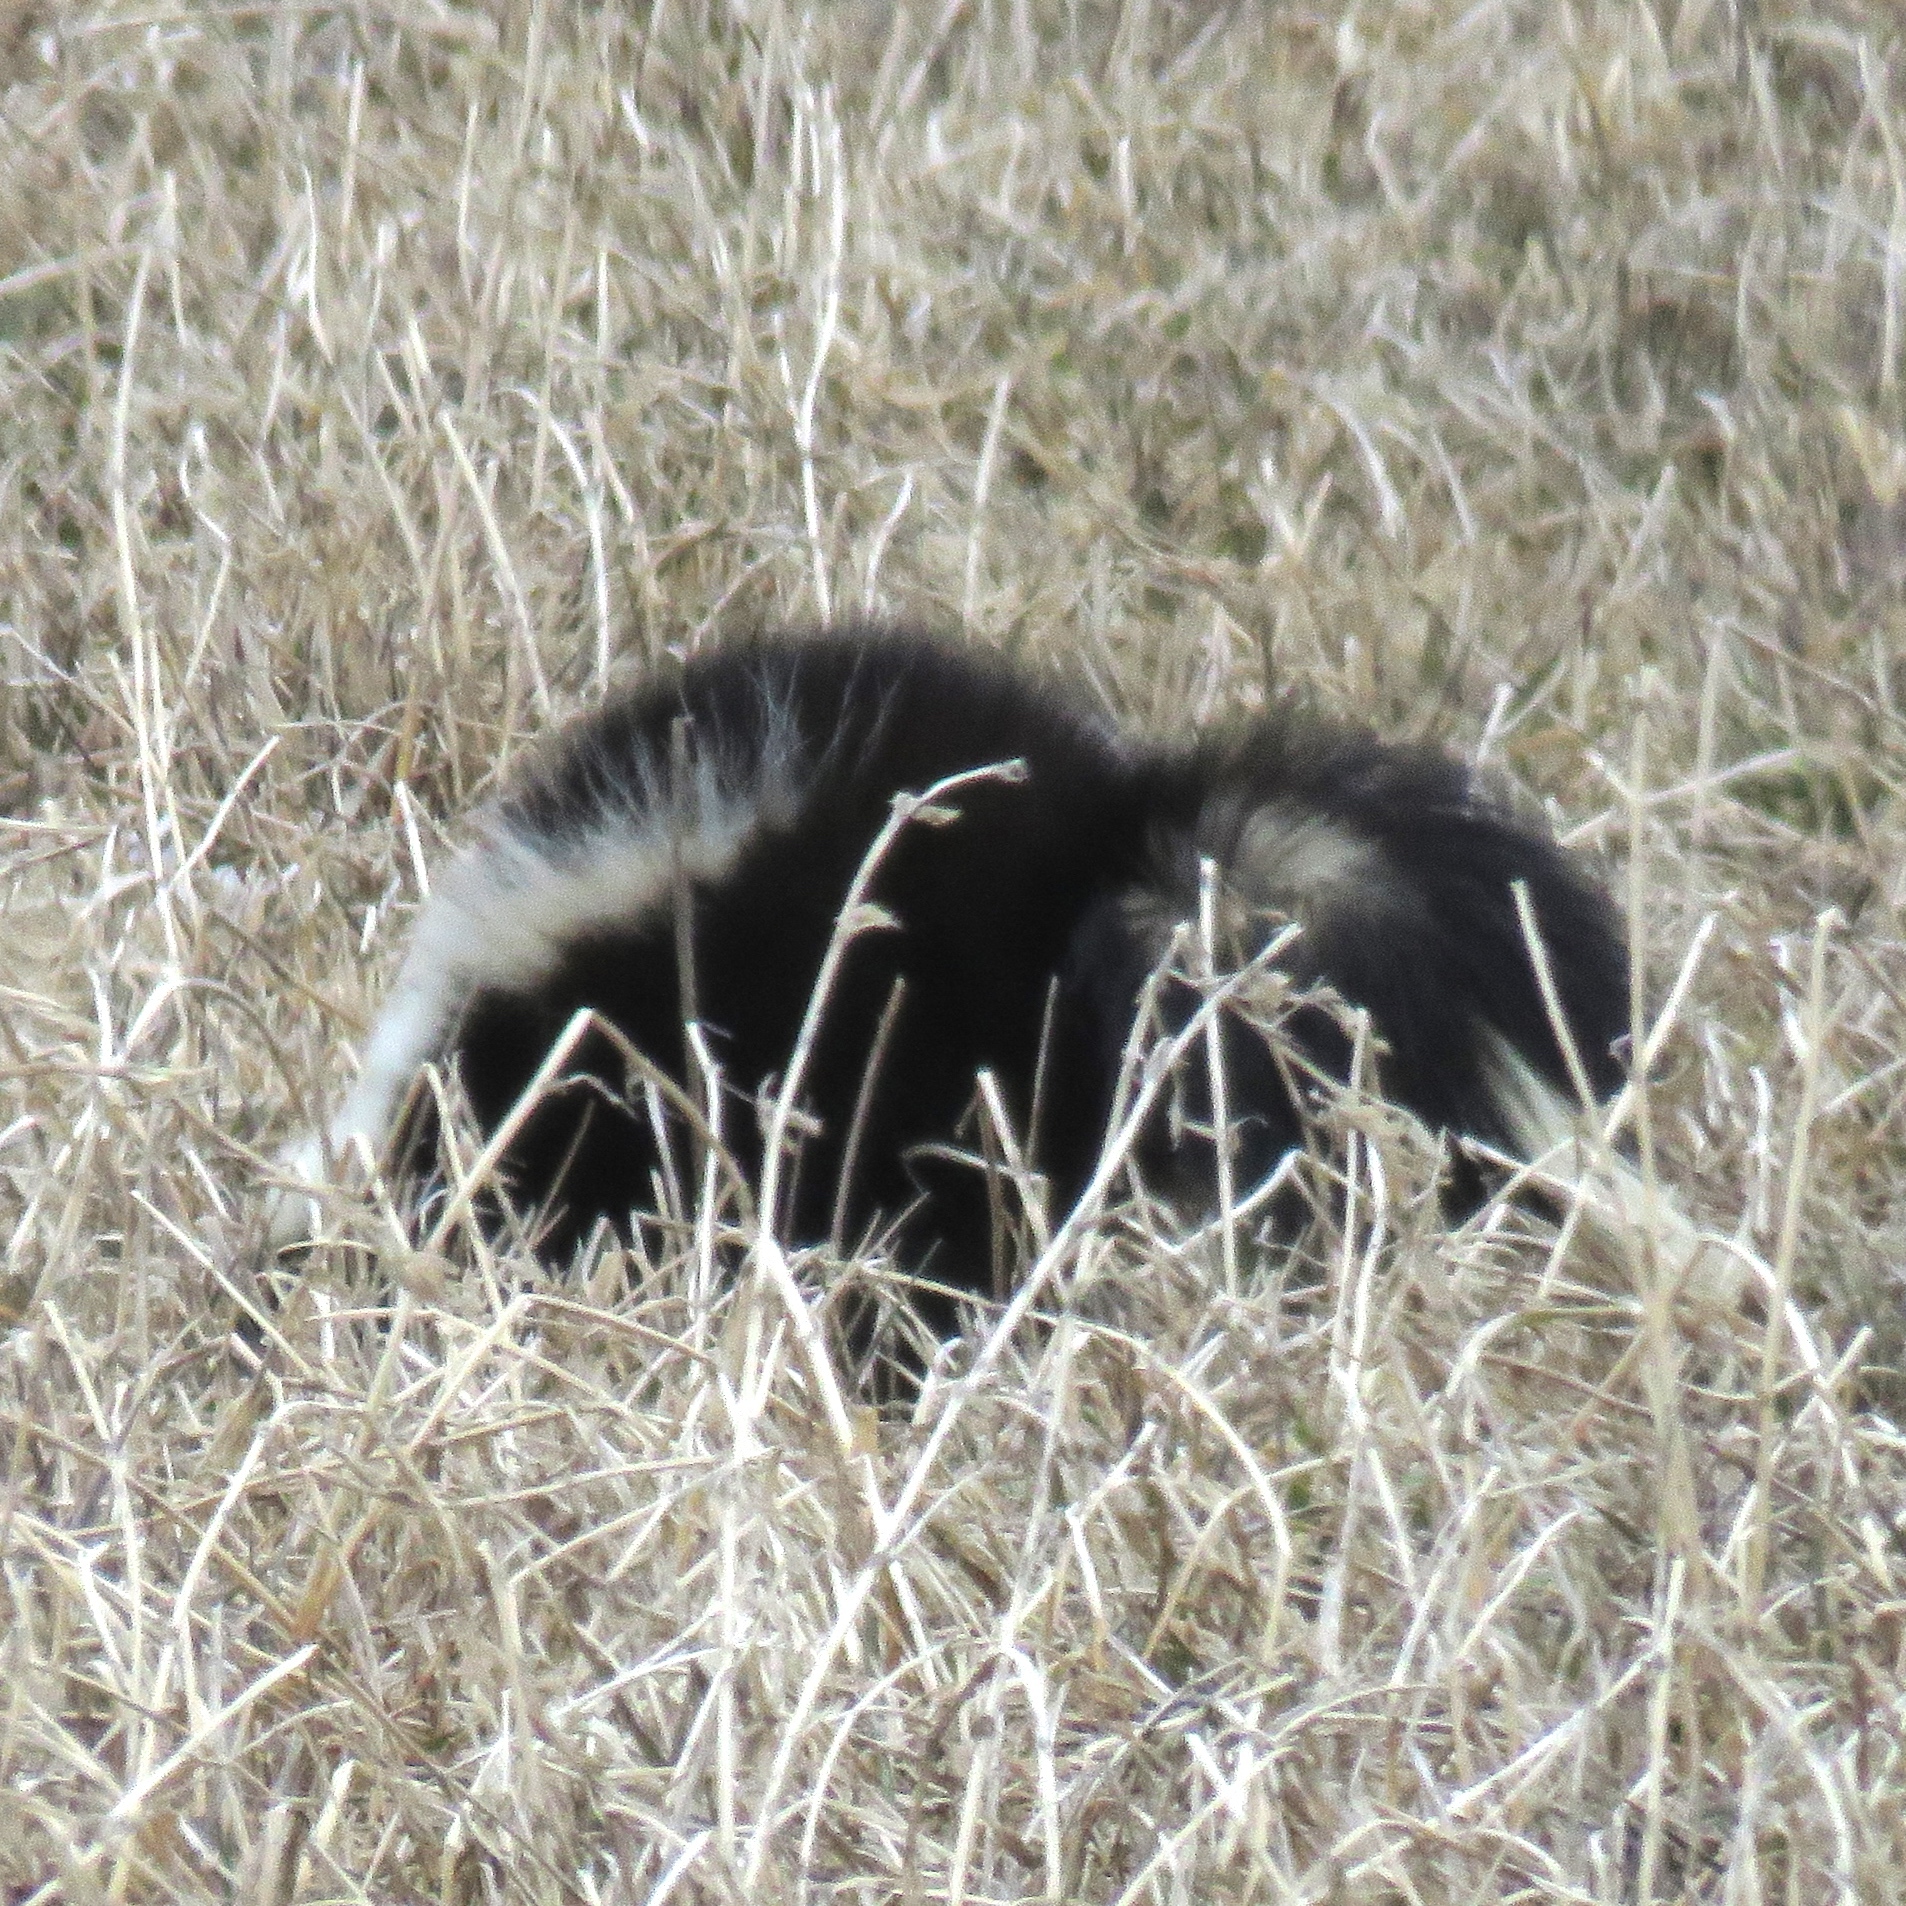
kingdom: Animalia
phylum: Chordata
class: Mammalia
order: Carnivora
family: Mephitidae
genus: Mephitis
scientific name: Mephitis mephitis
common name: Striped skunk
